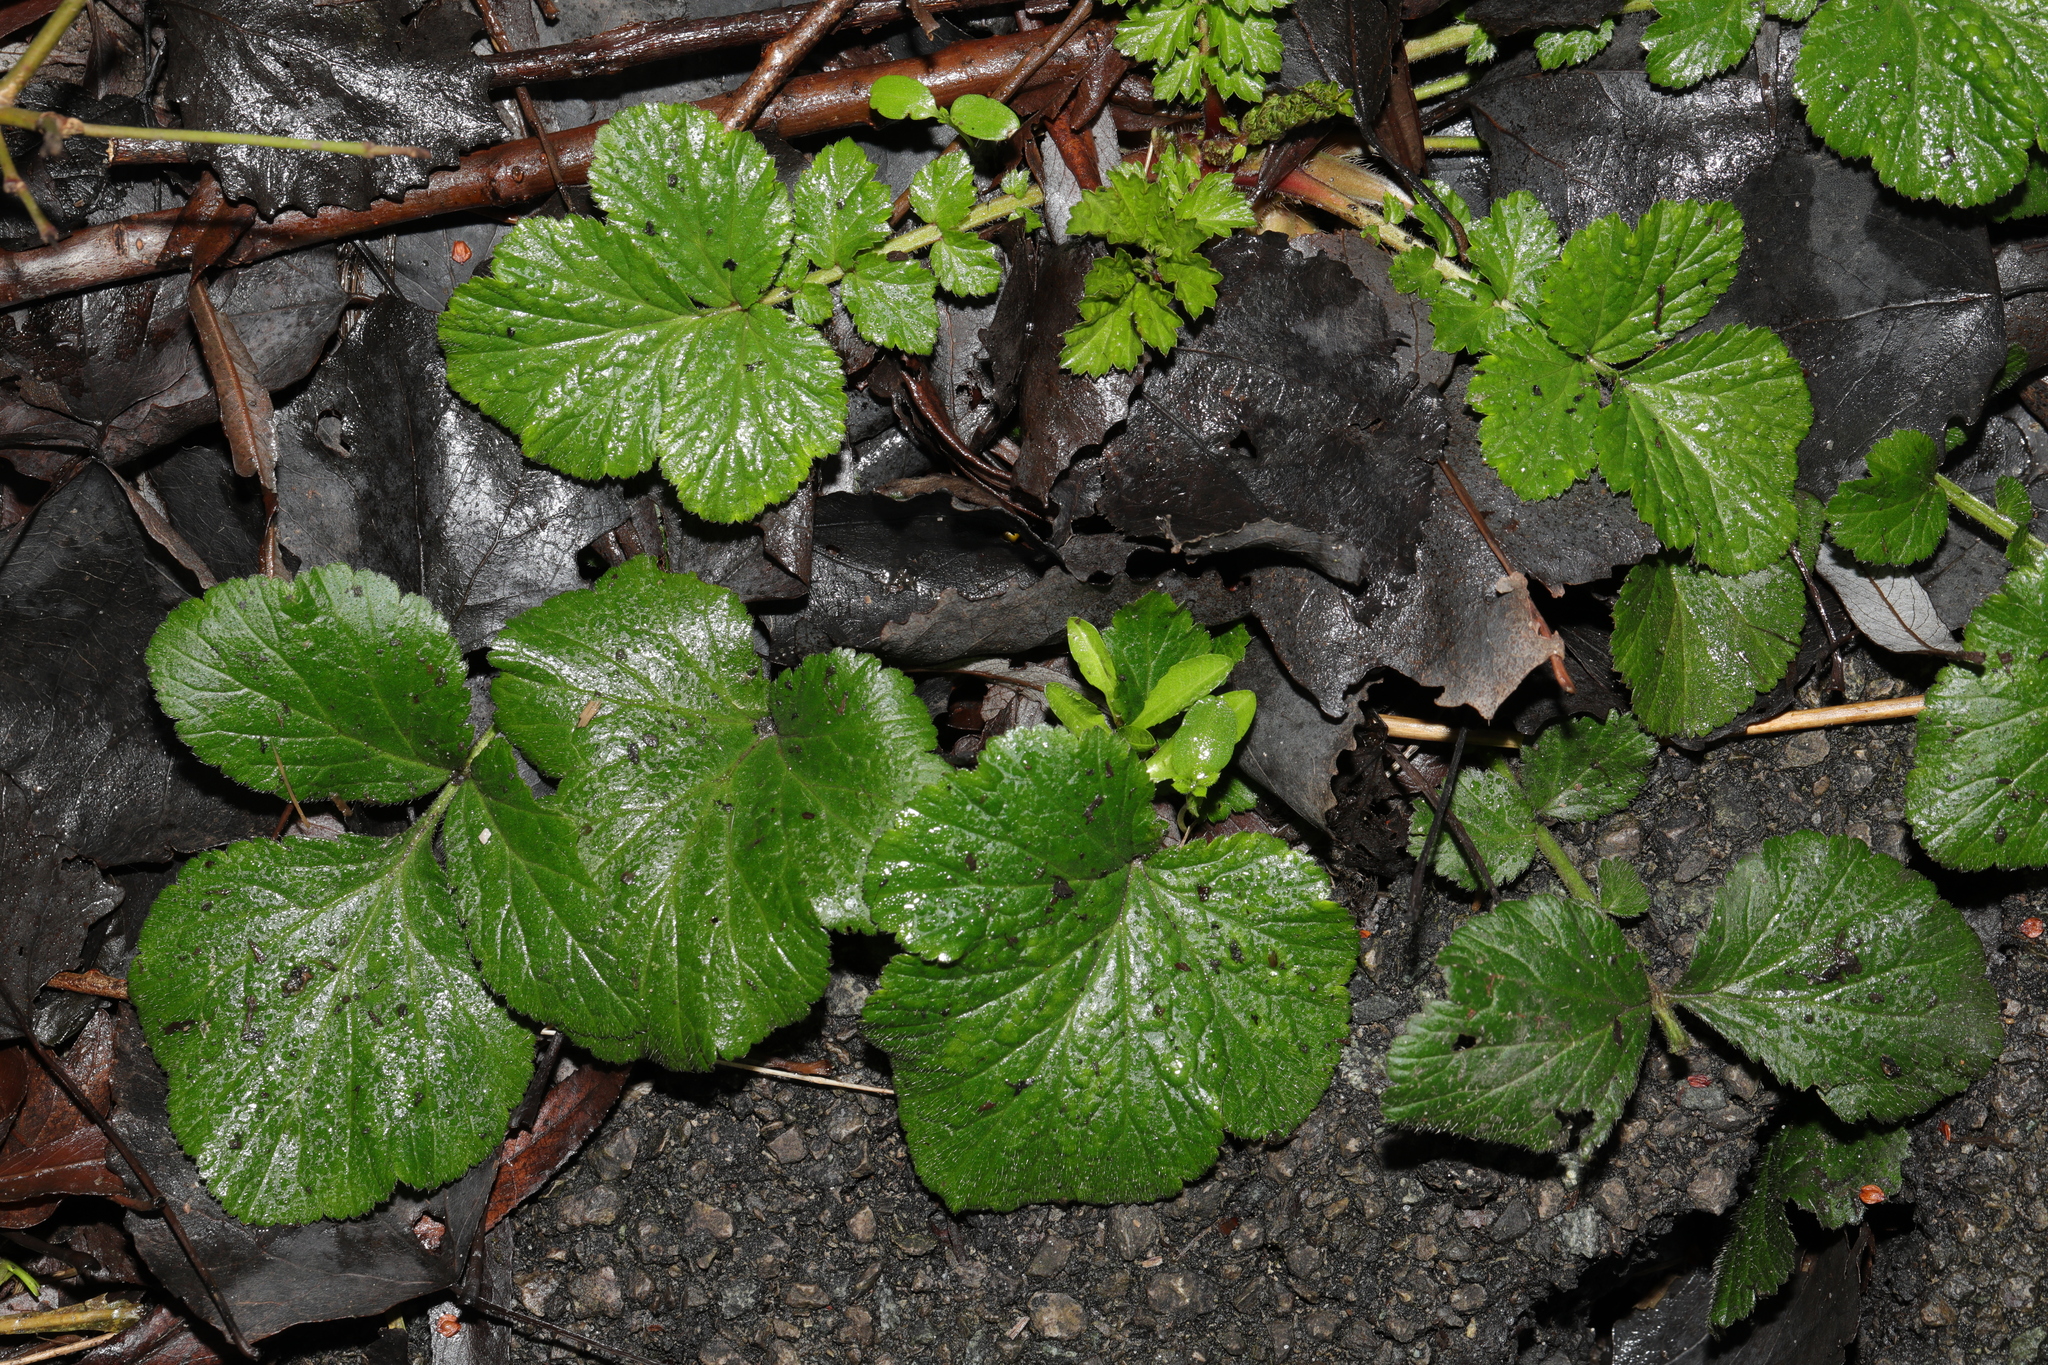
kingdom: Plantae
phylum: Tracheophyta
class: Magnoliopsida
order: Rosales
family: Rosaceae
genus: Geum
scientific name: Geum urbanum
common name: Wood avens
